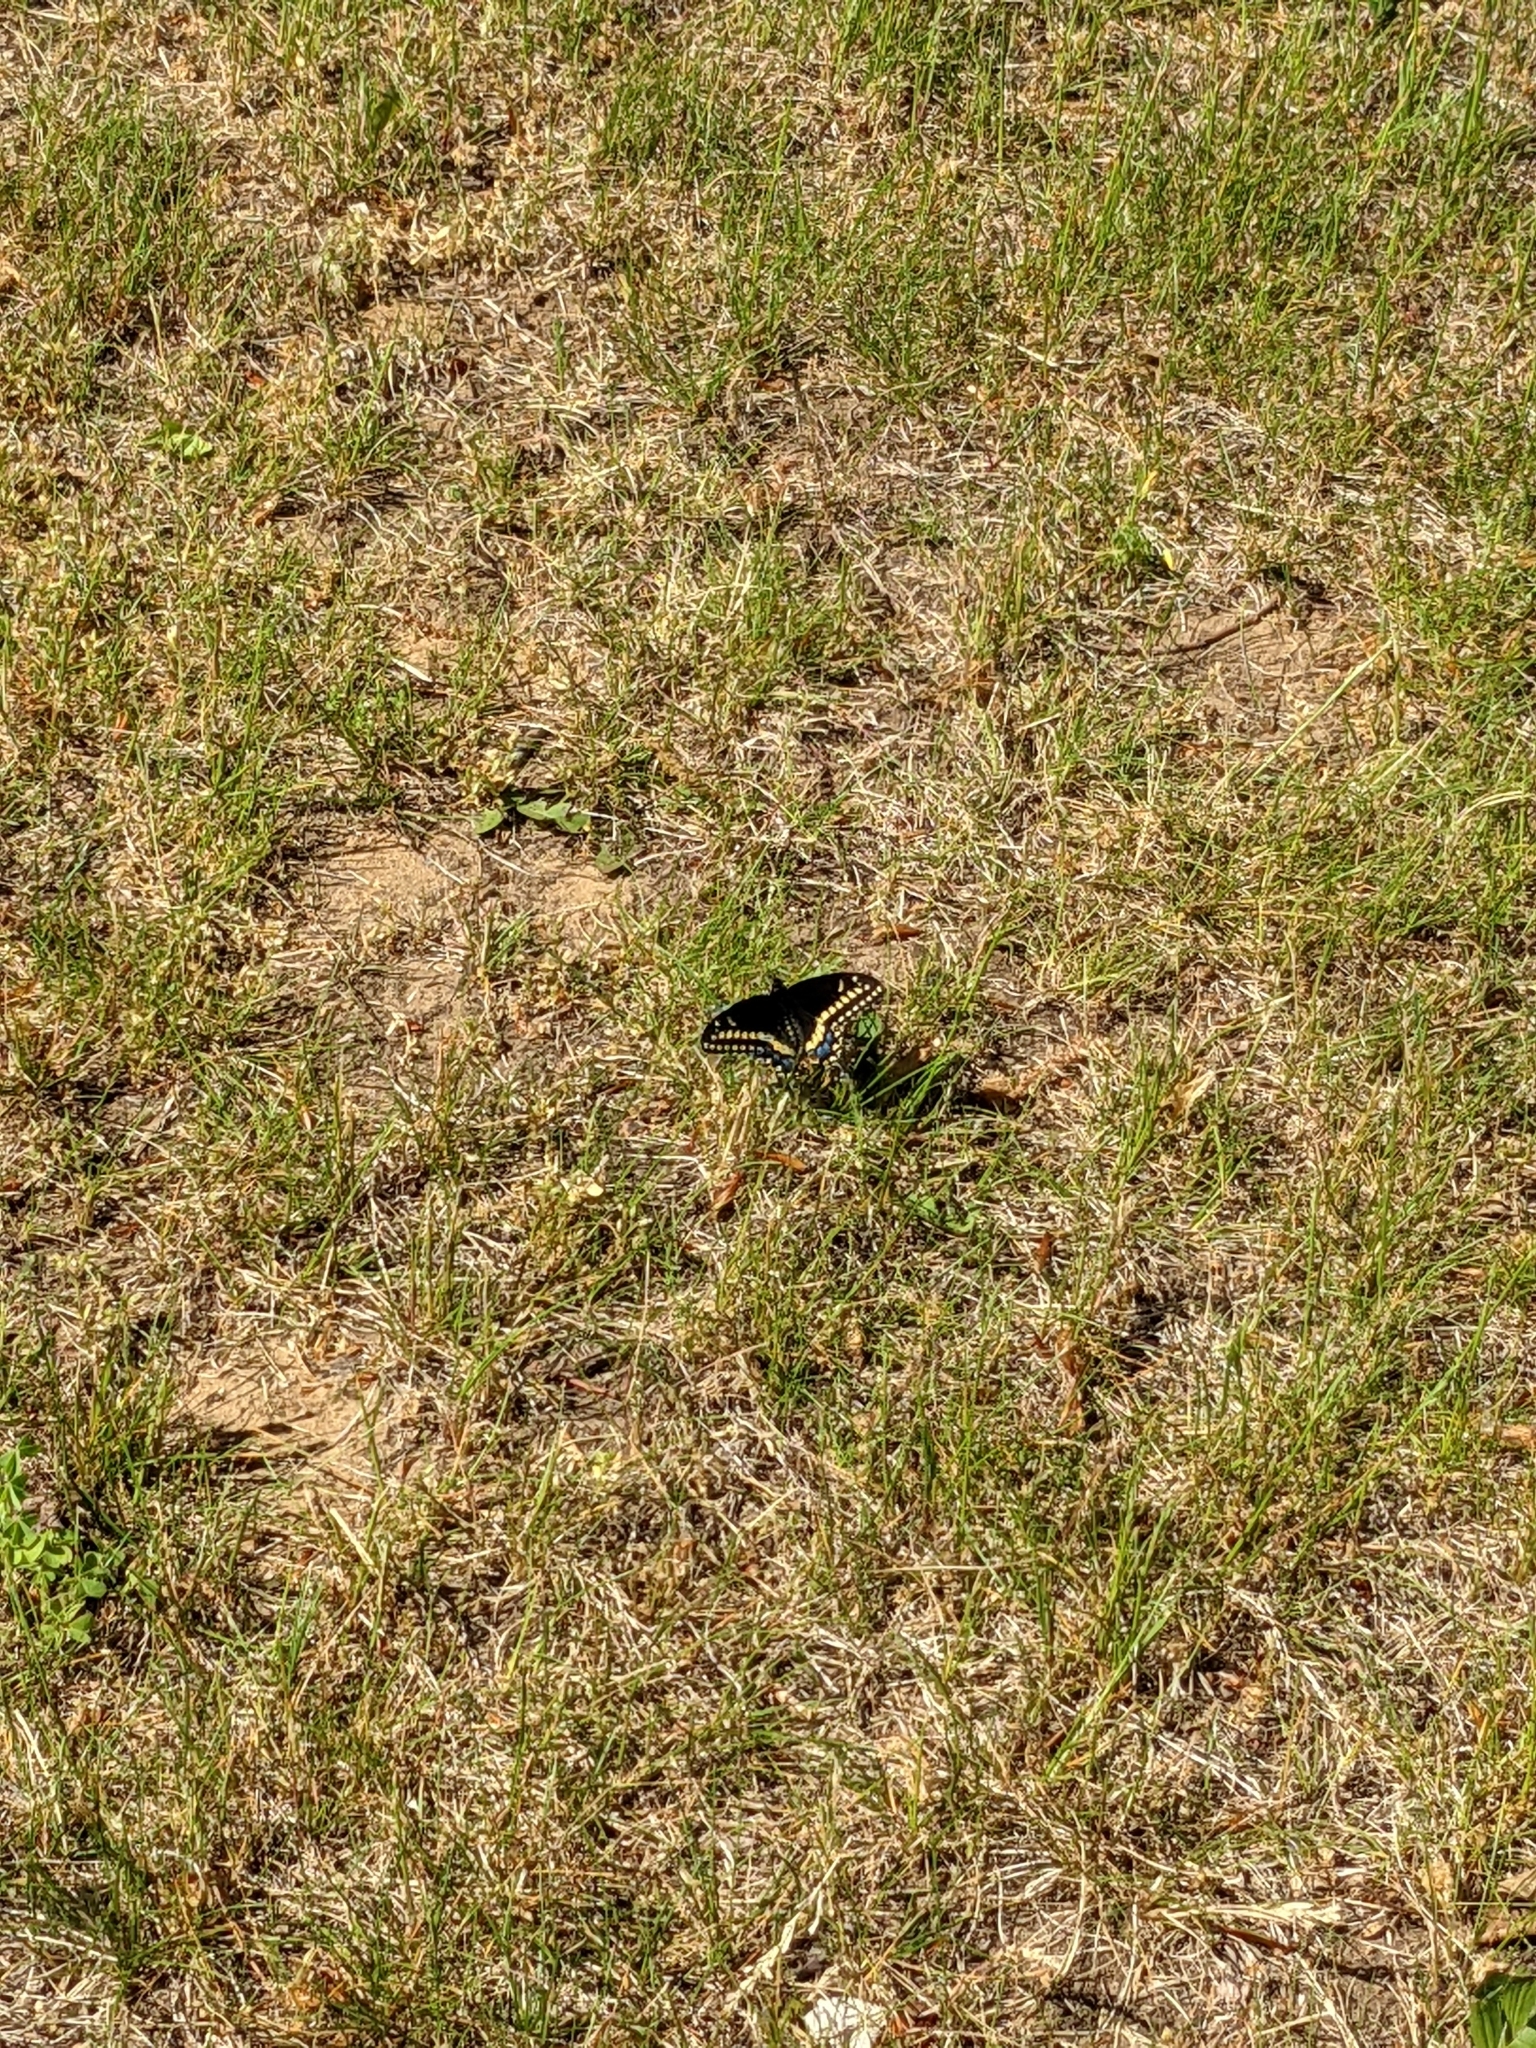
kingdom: Animalia
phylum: Arthropoda
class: Insecta
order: Lepidoptera
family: Papilionidae
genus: Papilio
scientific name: Papilio polyxenes
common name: Black swallowtail
